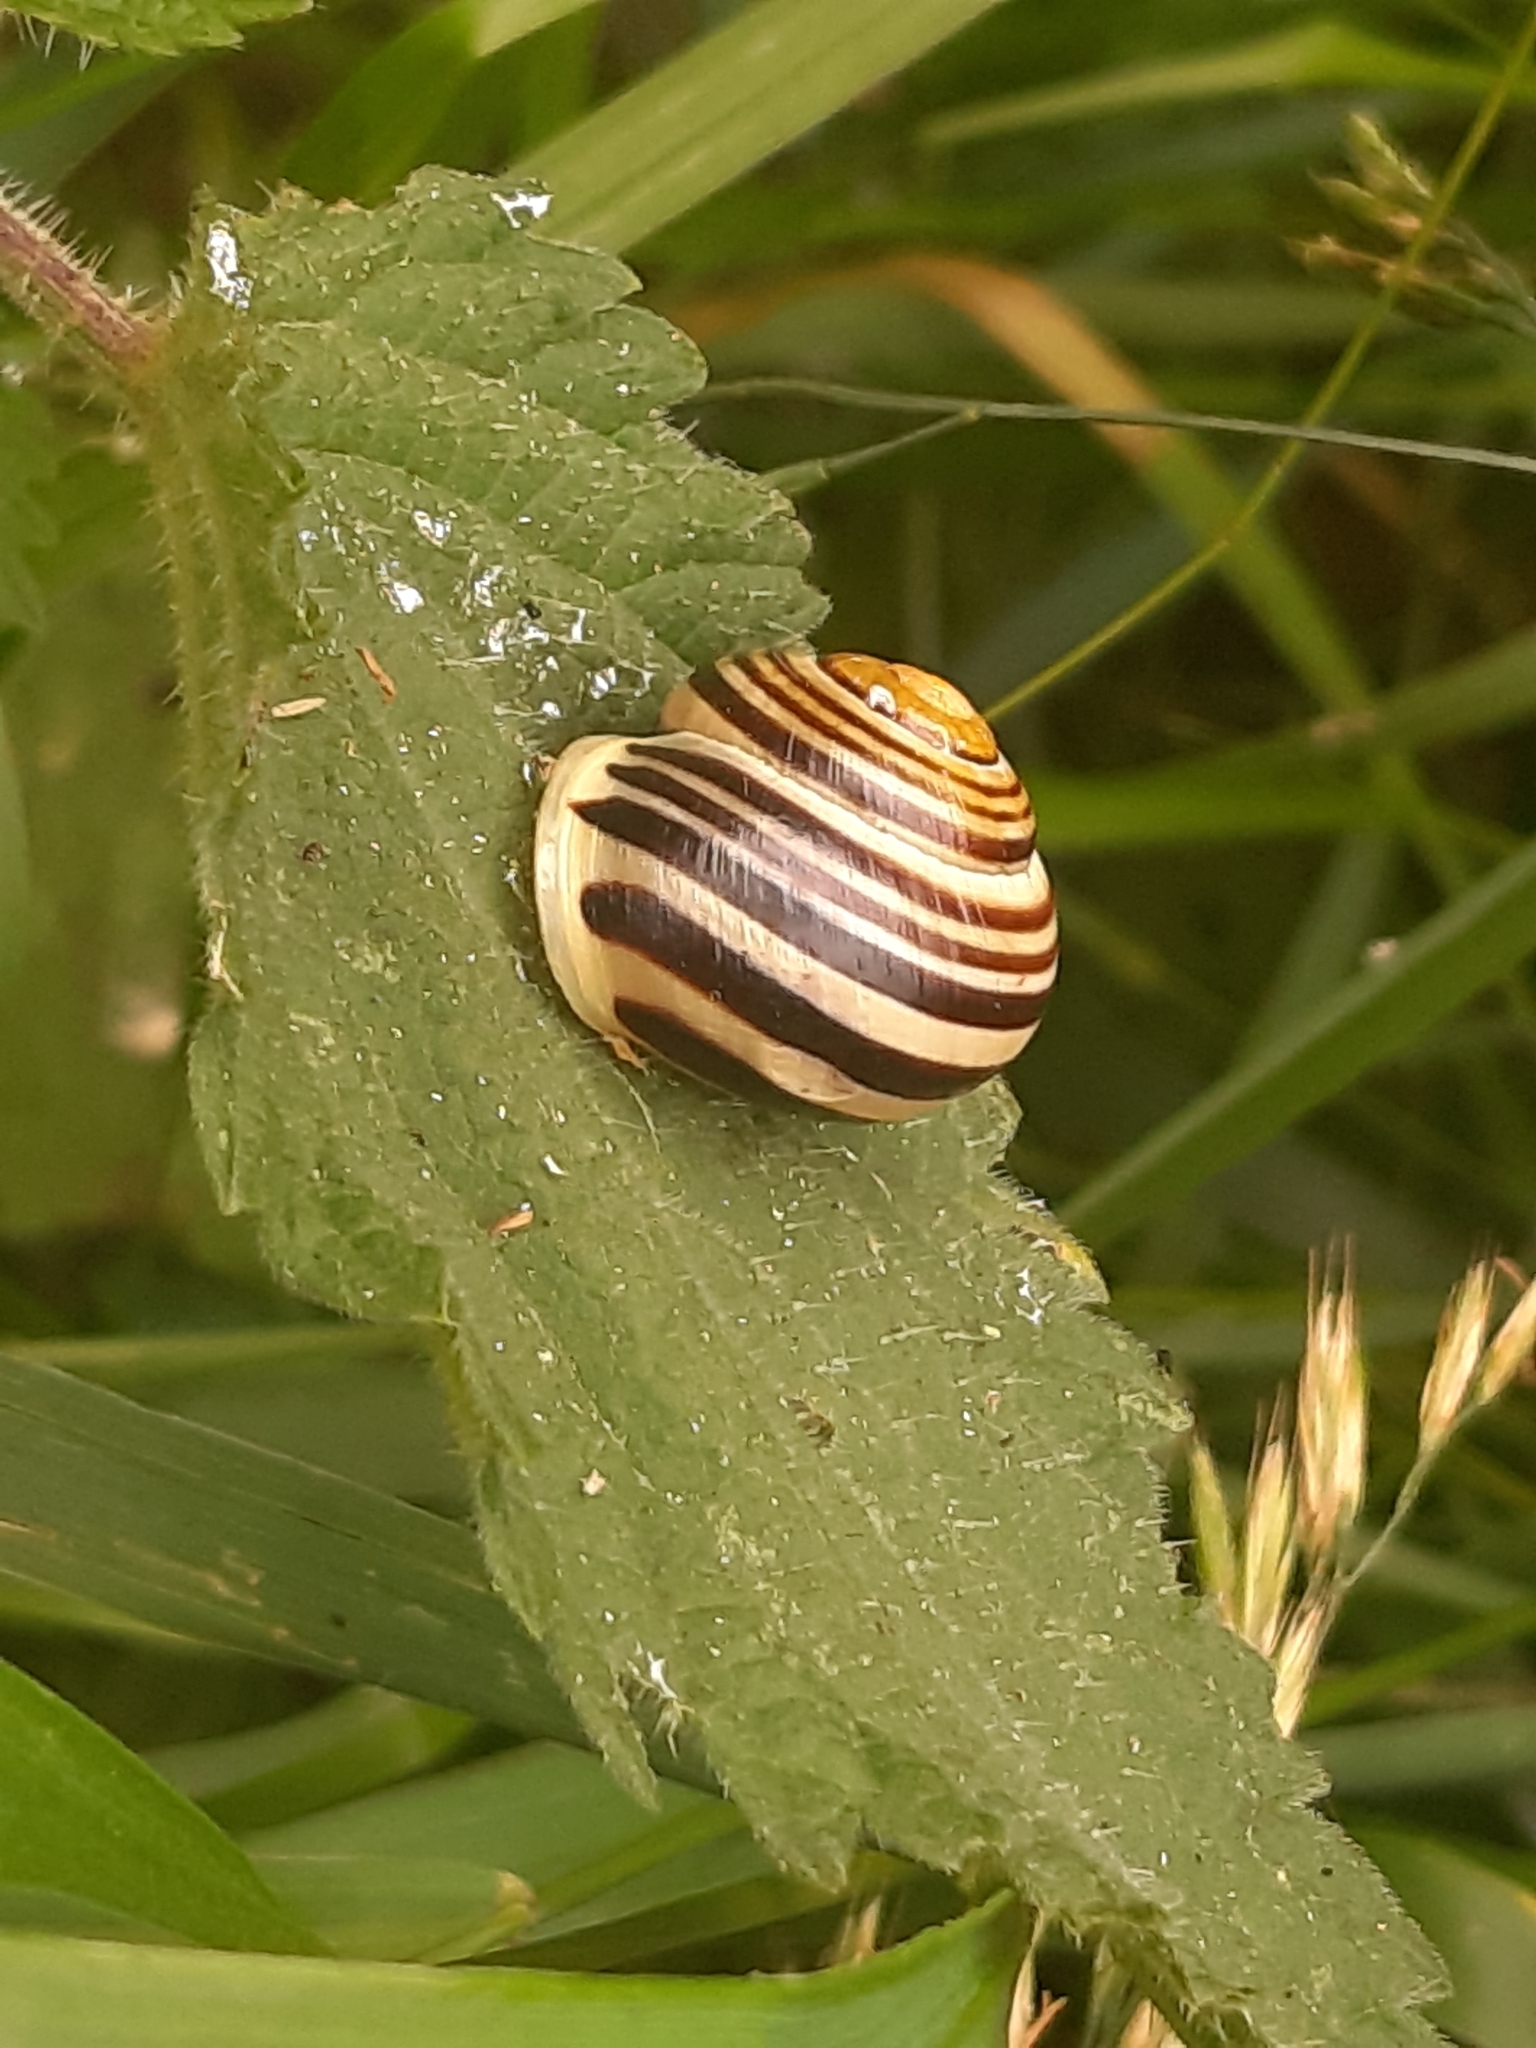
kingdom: Animalia
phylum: Mollusca
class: Gastropoda
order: Stylommatophora
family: Helicidae
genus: Cepaea
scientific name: Cepaea hortensis
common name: White-lip gardensnail
